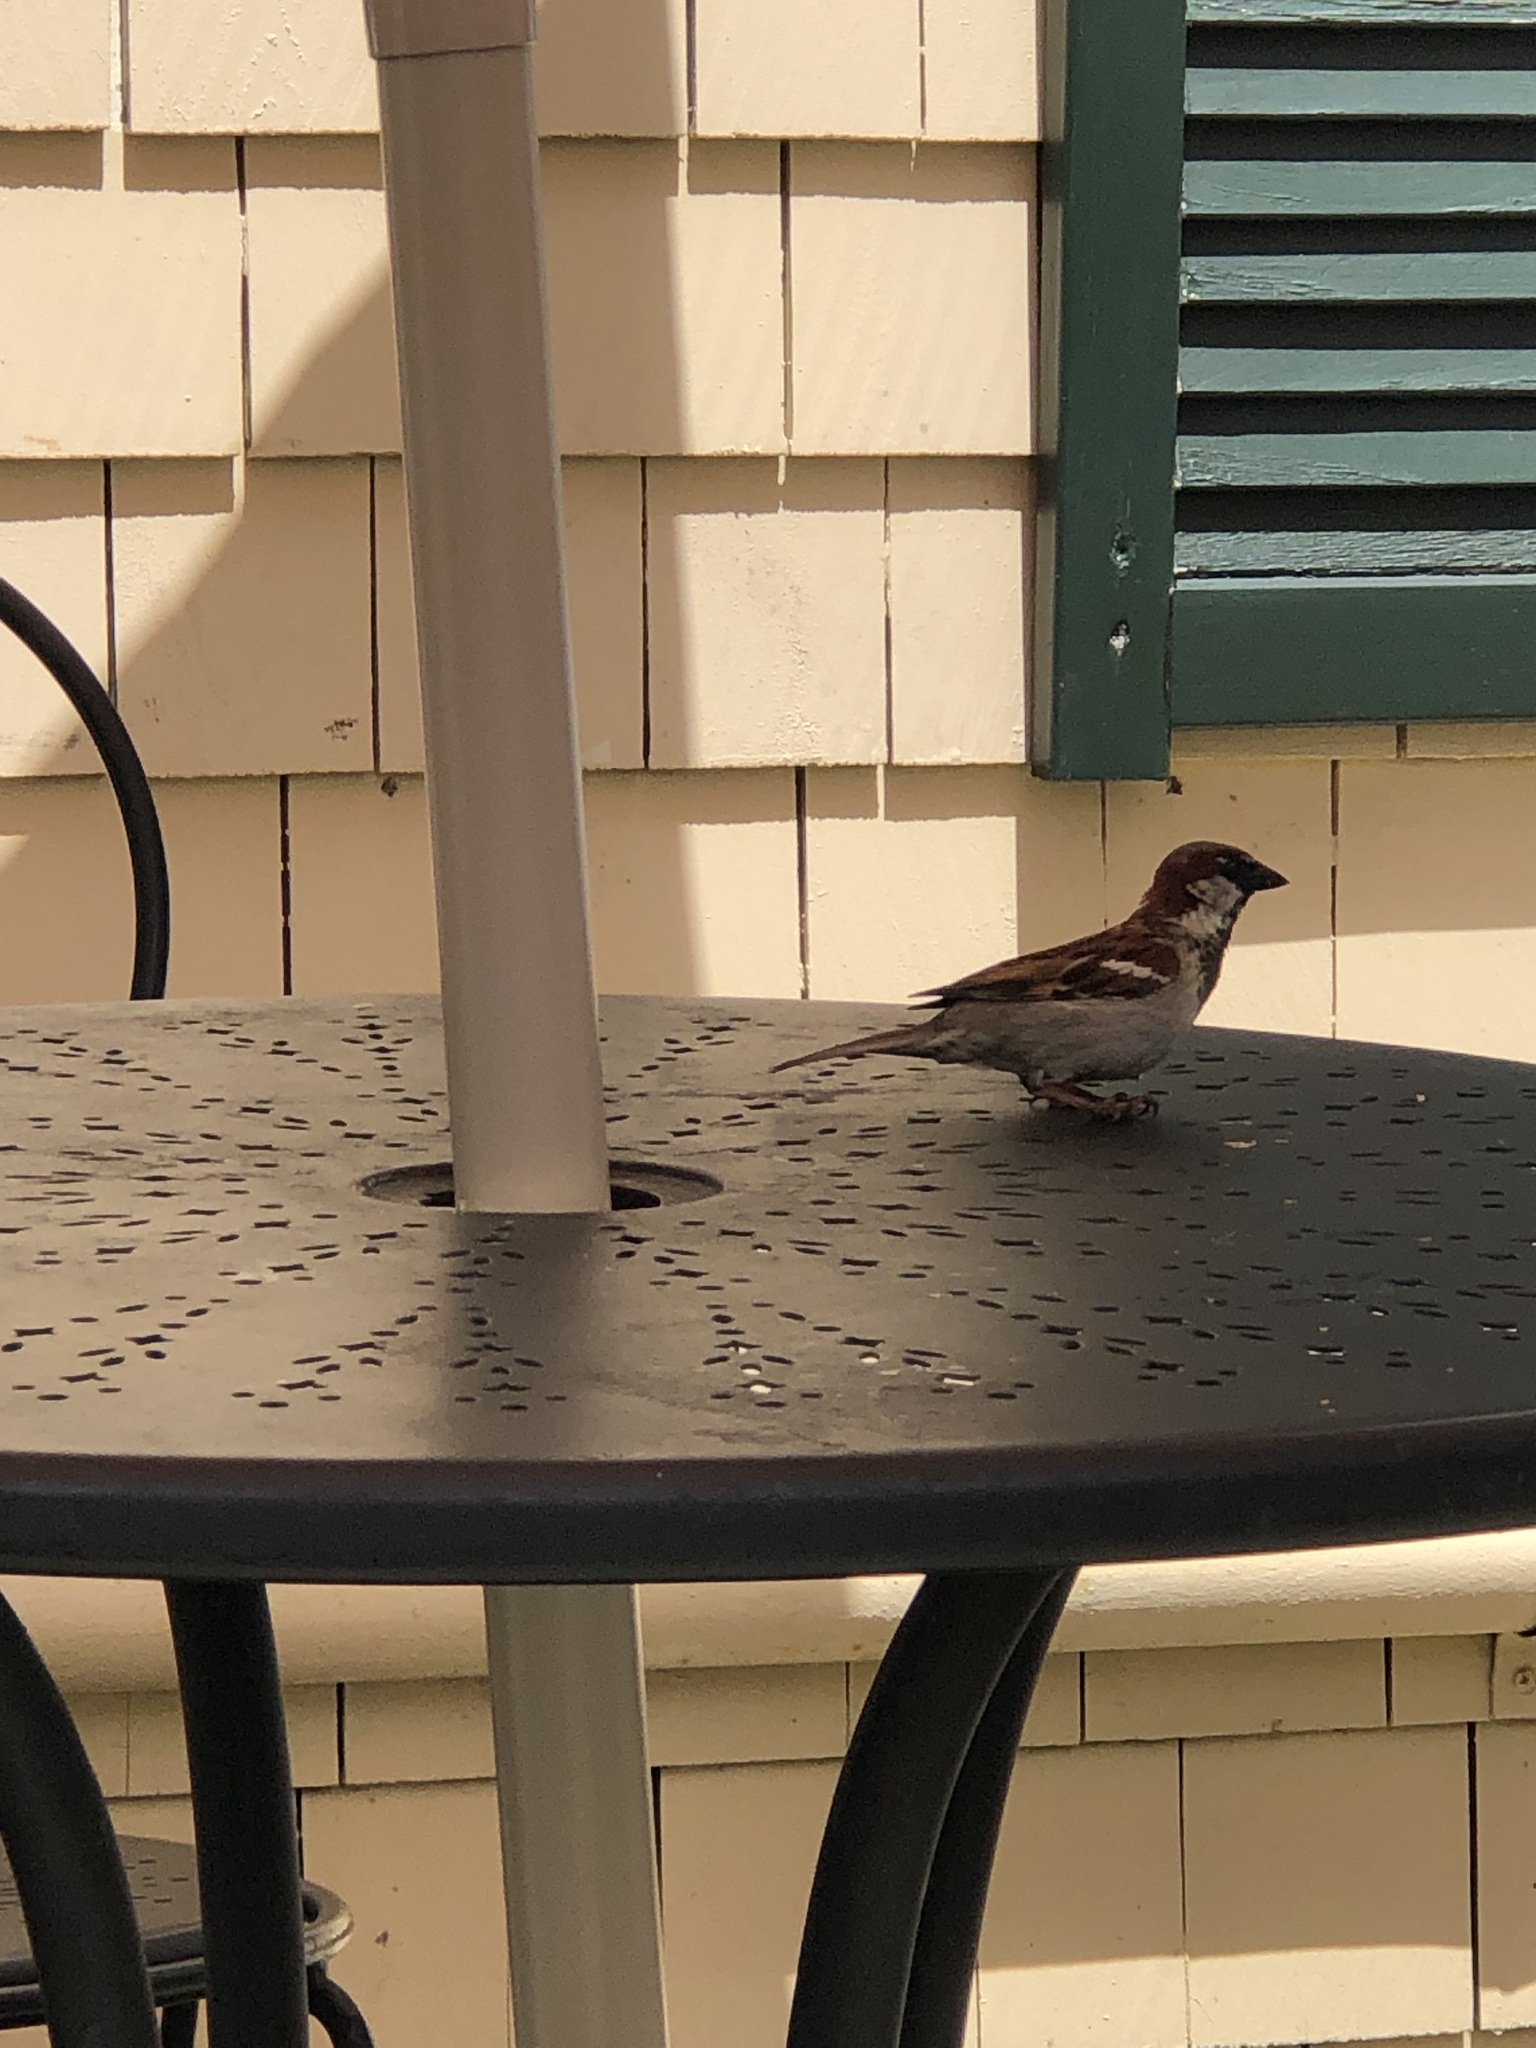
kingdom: Animalia
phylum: Chordata
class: Aves
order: Passeriformes
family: Passeridae
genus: Passer
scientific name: Passer domesticus
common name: House sparrow
